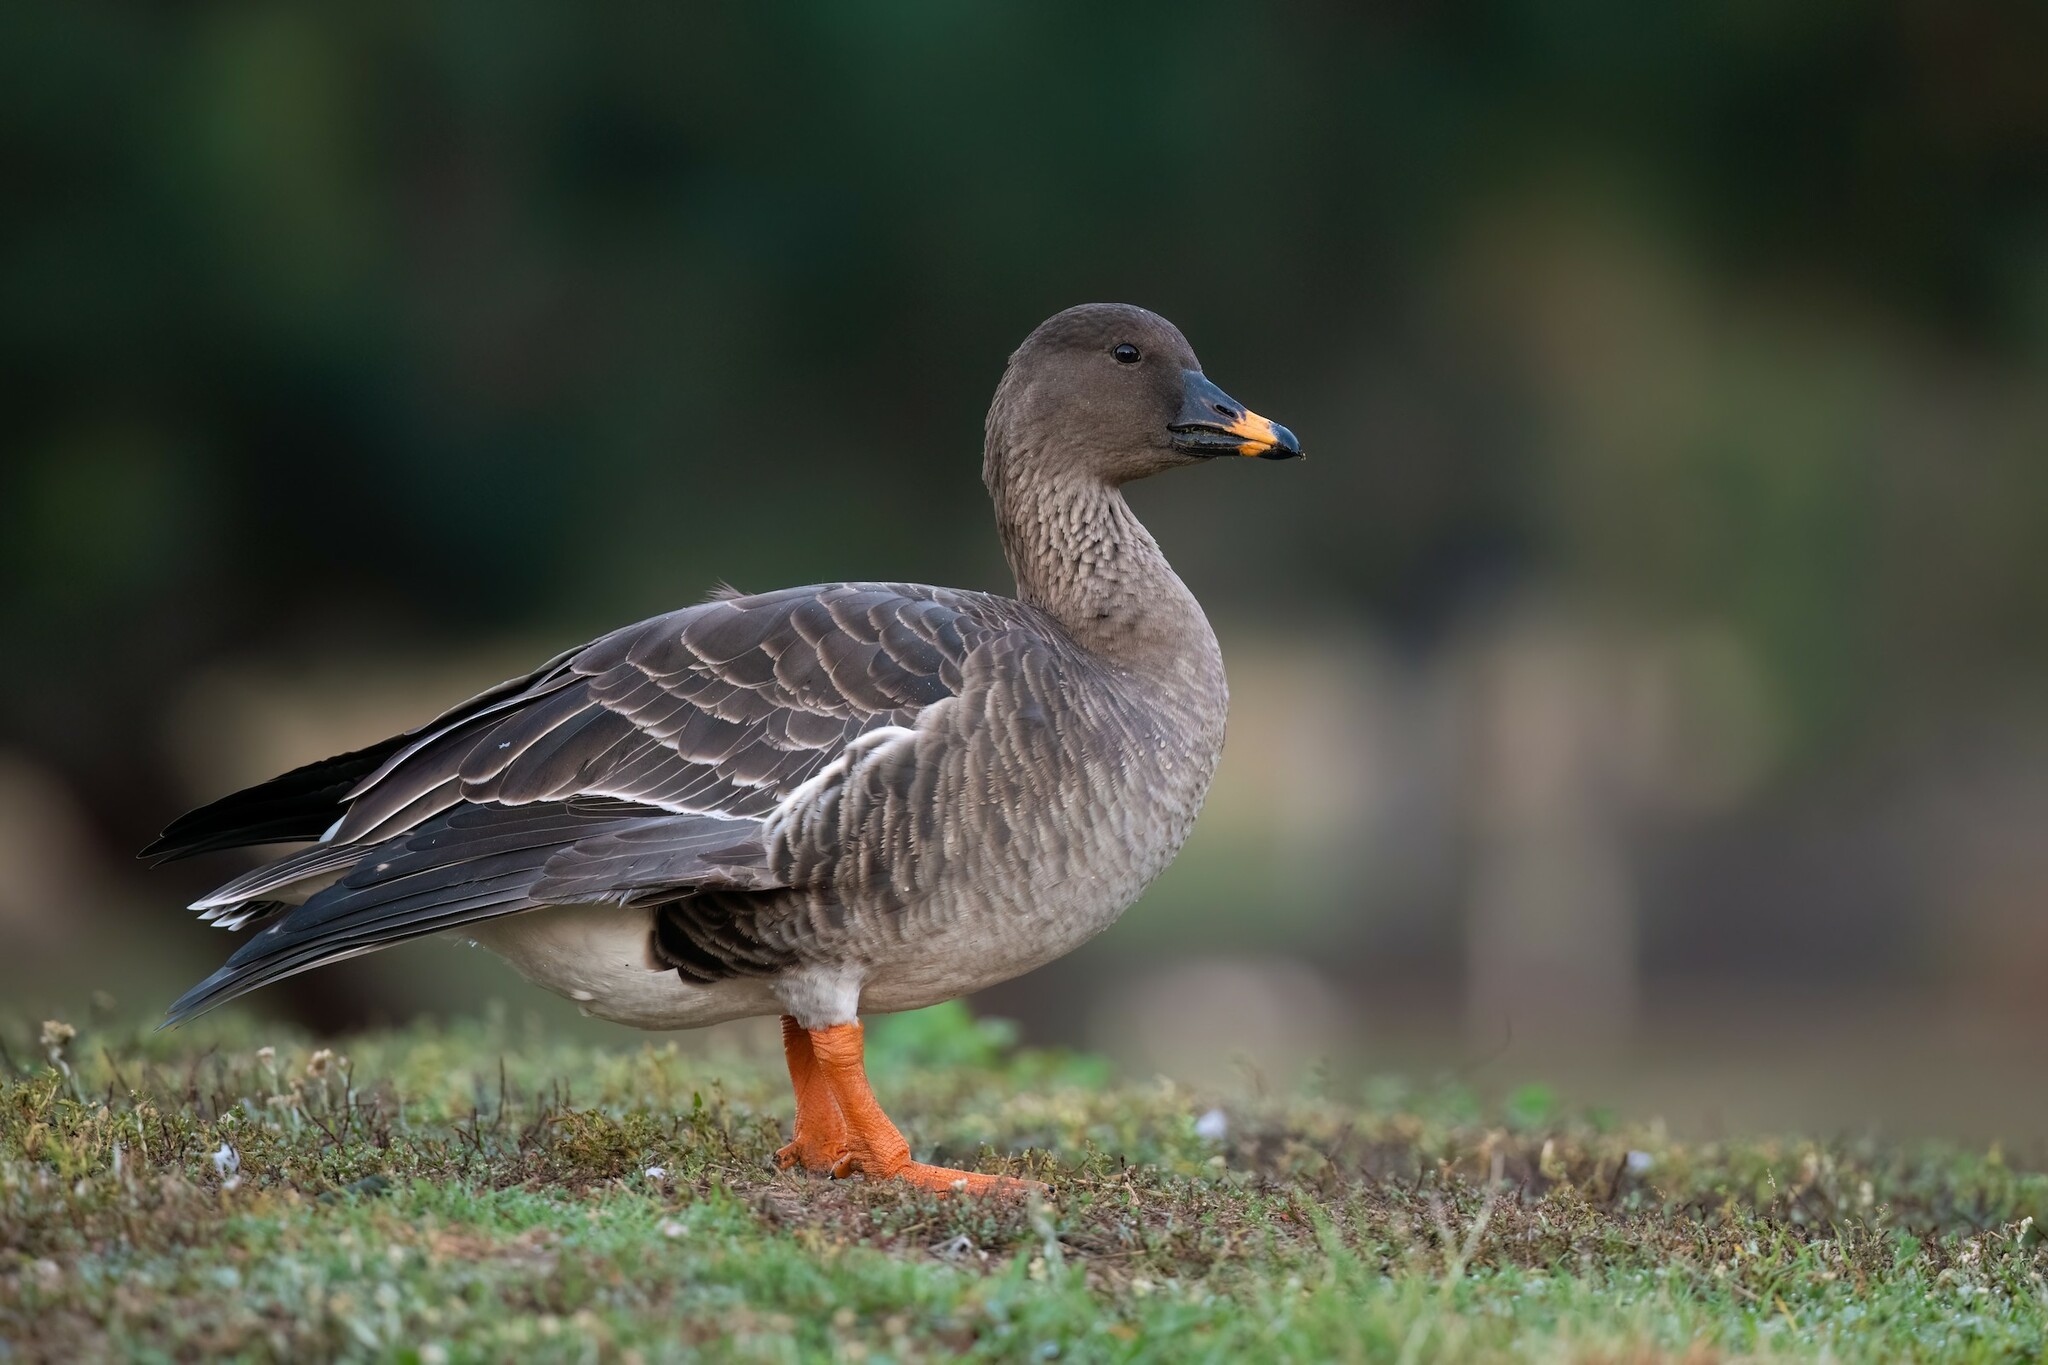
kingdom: Animalia
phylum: Chordata
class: Aves
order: Anseriformes
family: Anatidae
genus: Anser
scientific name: Anser serrirostris
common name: Tundra bean goose
